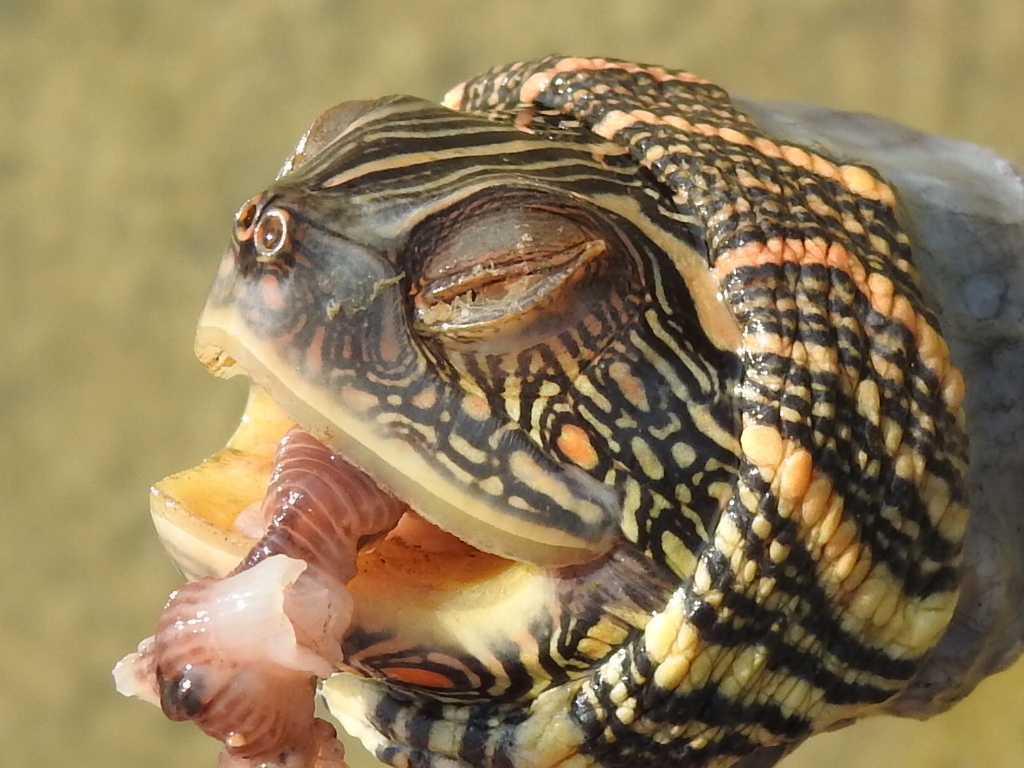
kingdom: Animalia
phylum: Chordata
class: Testudines
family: Emydidae
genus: Graptemys
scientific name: Graptemys versa
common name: Texas map turtle
